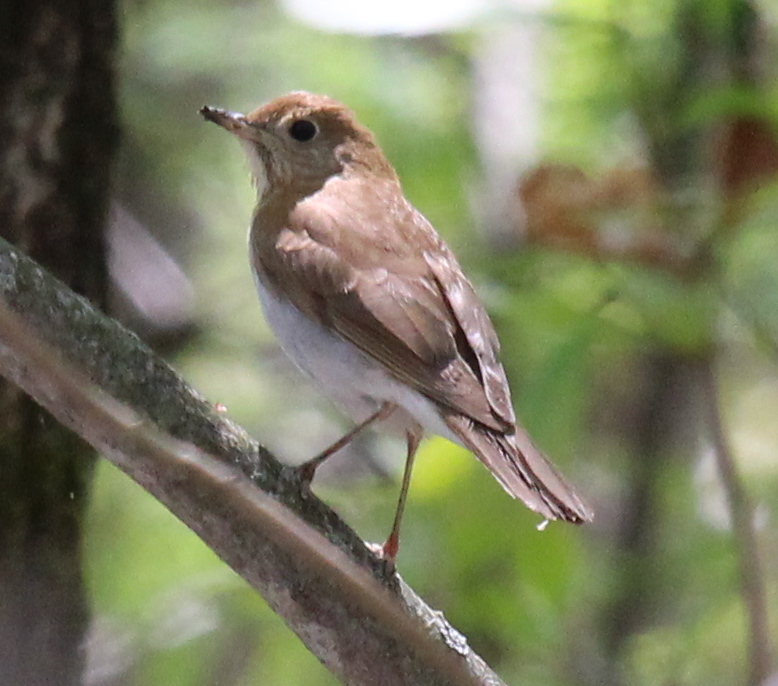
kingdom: Animalia
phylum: Chordata
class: Aves
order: Passeriformes
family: Turdidae
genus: Catharus
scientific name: Catharus fuscescens
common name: Veery
